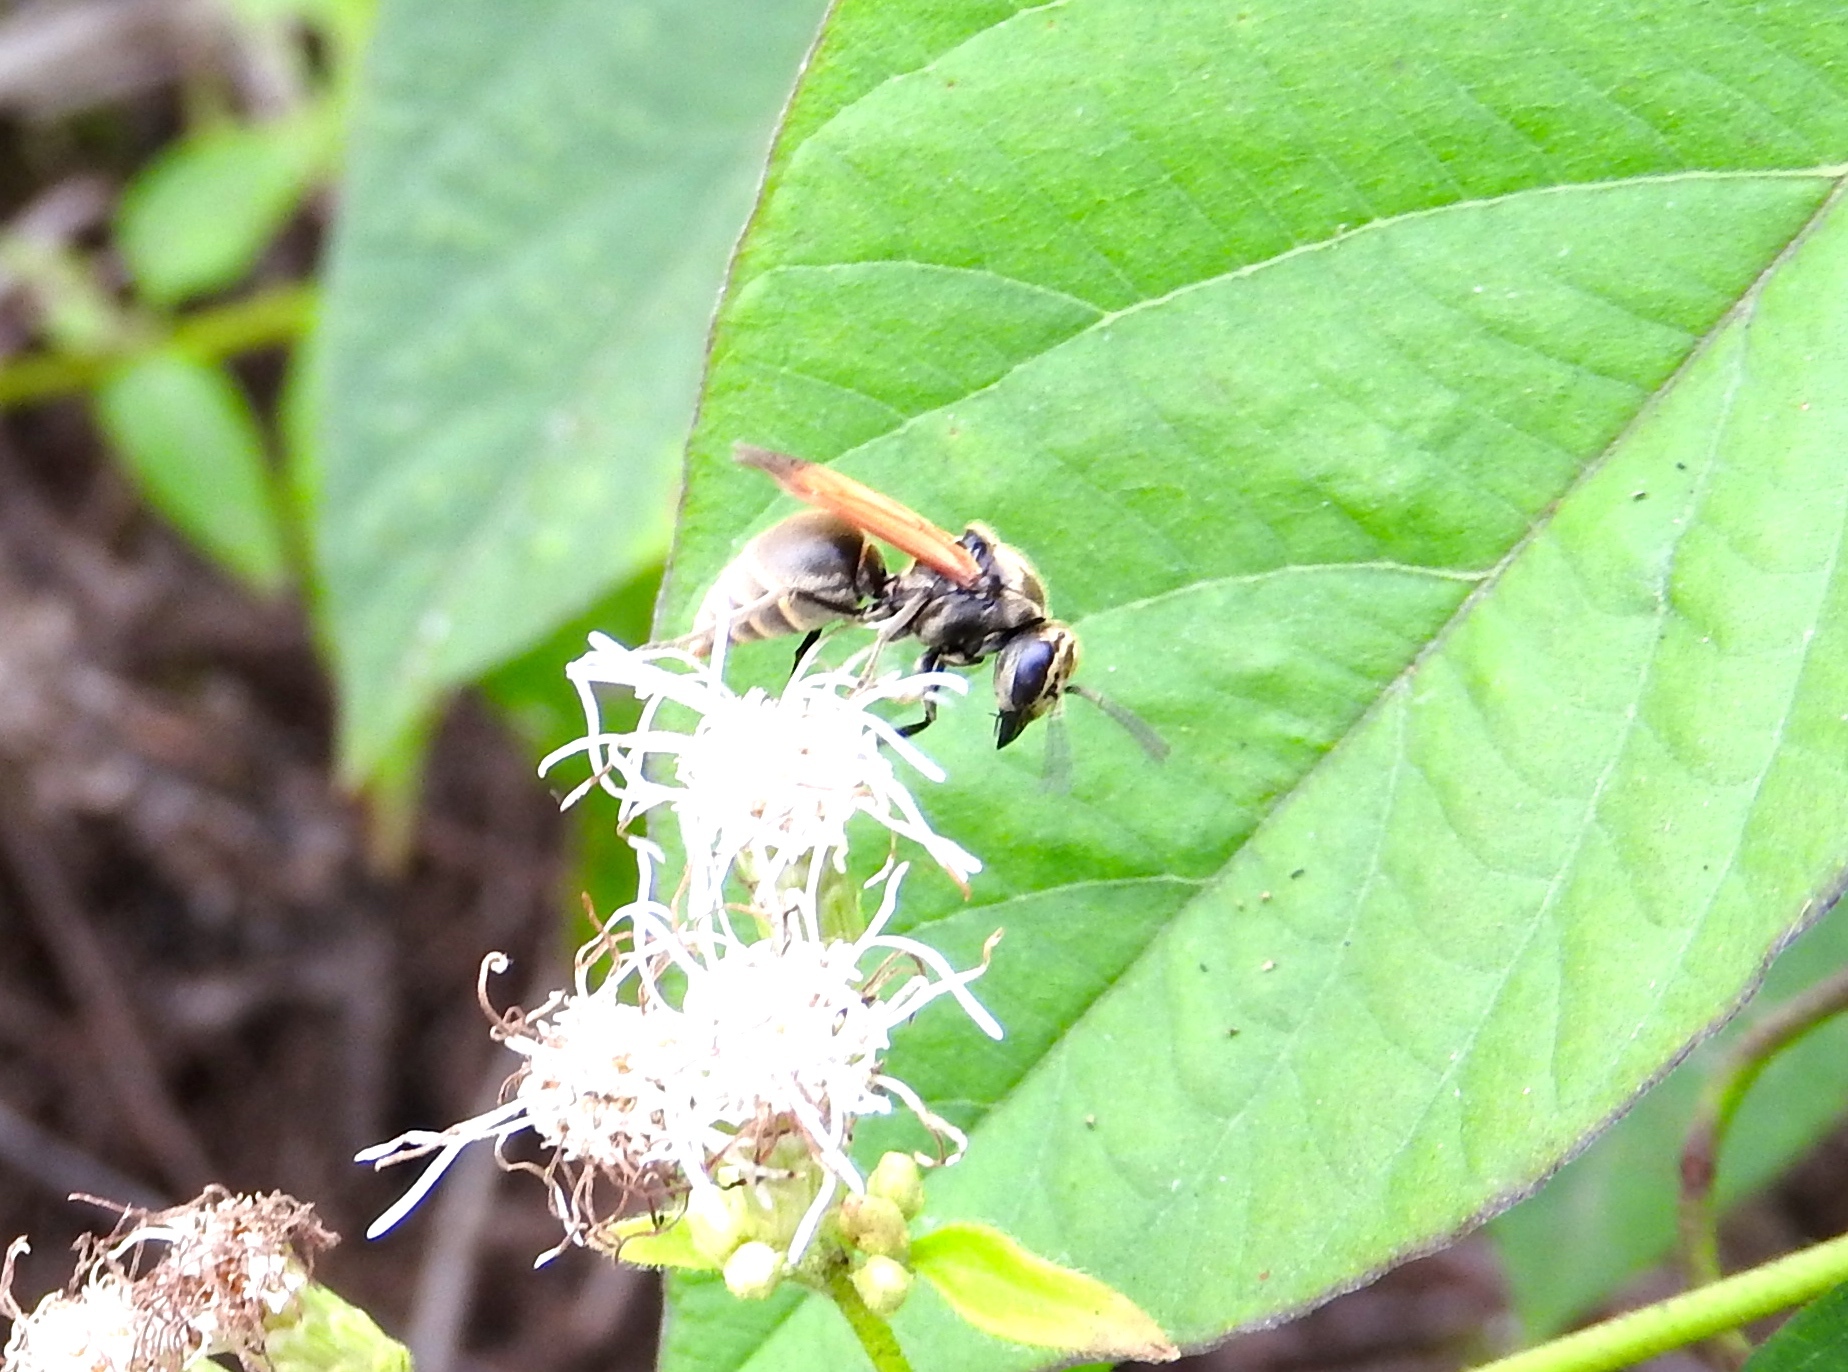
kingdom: Animalia
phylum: Arthropoda
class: Insecta
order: Hymenoptera
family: Vespidae
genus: Brachygastra
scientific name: Brachygastra mellifica
